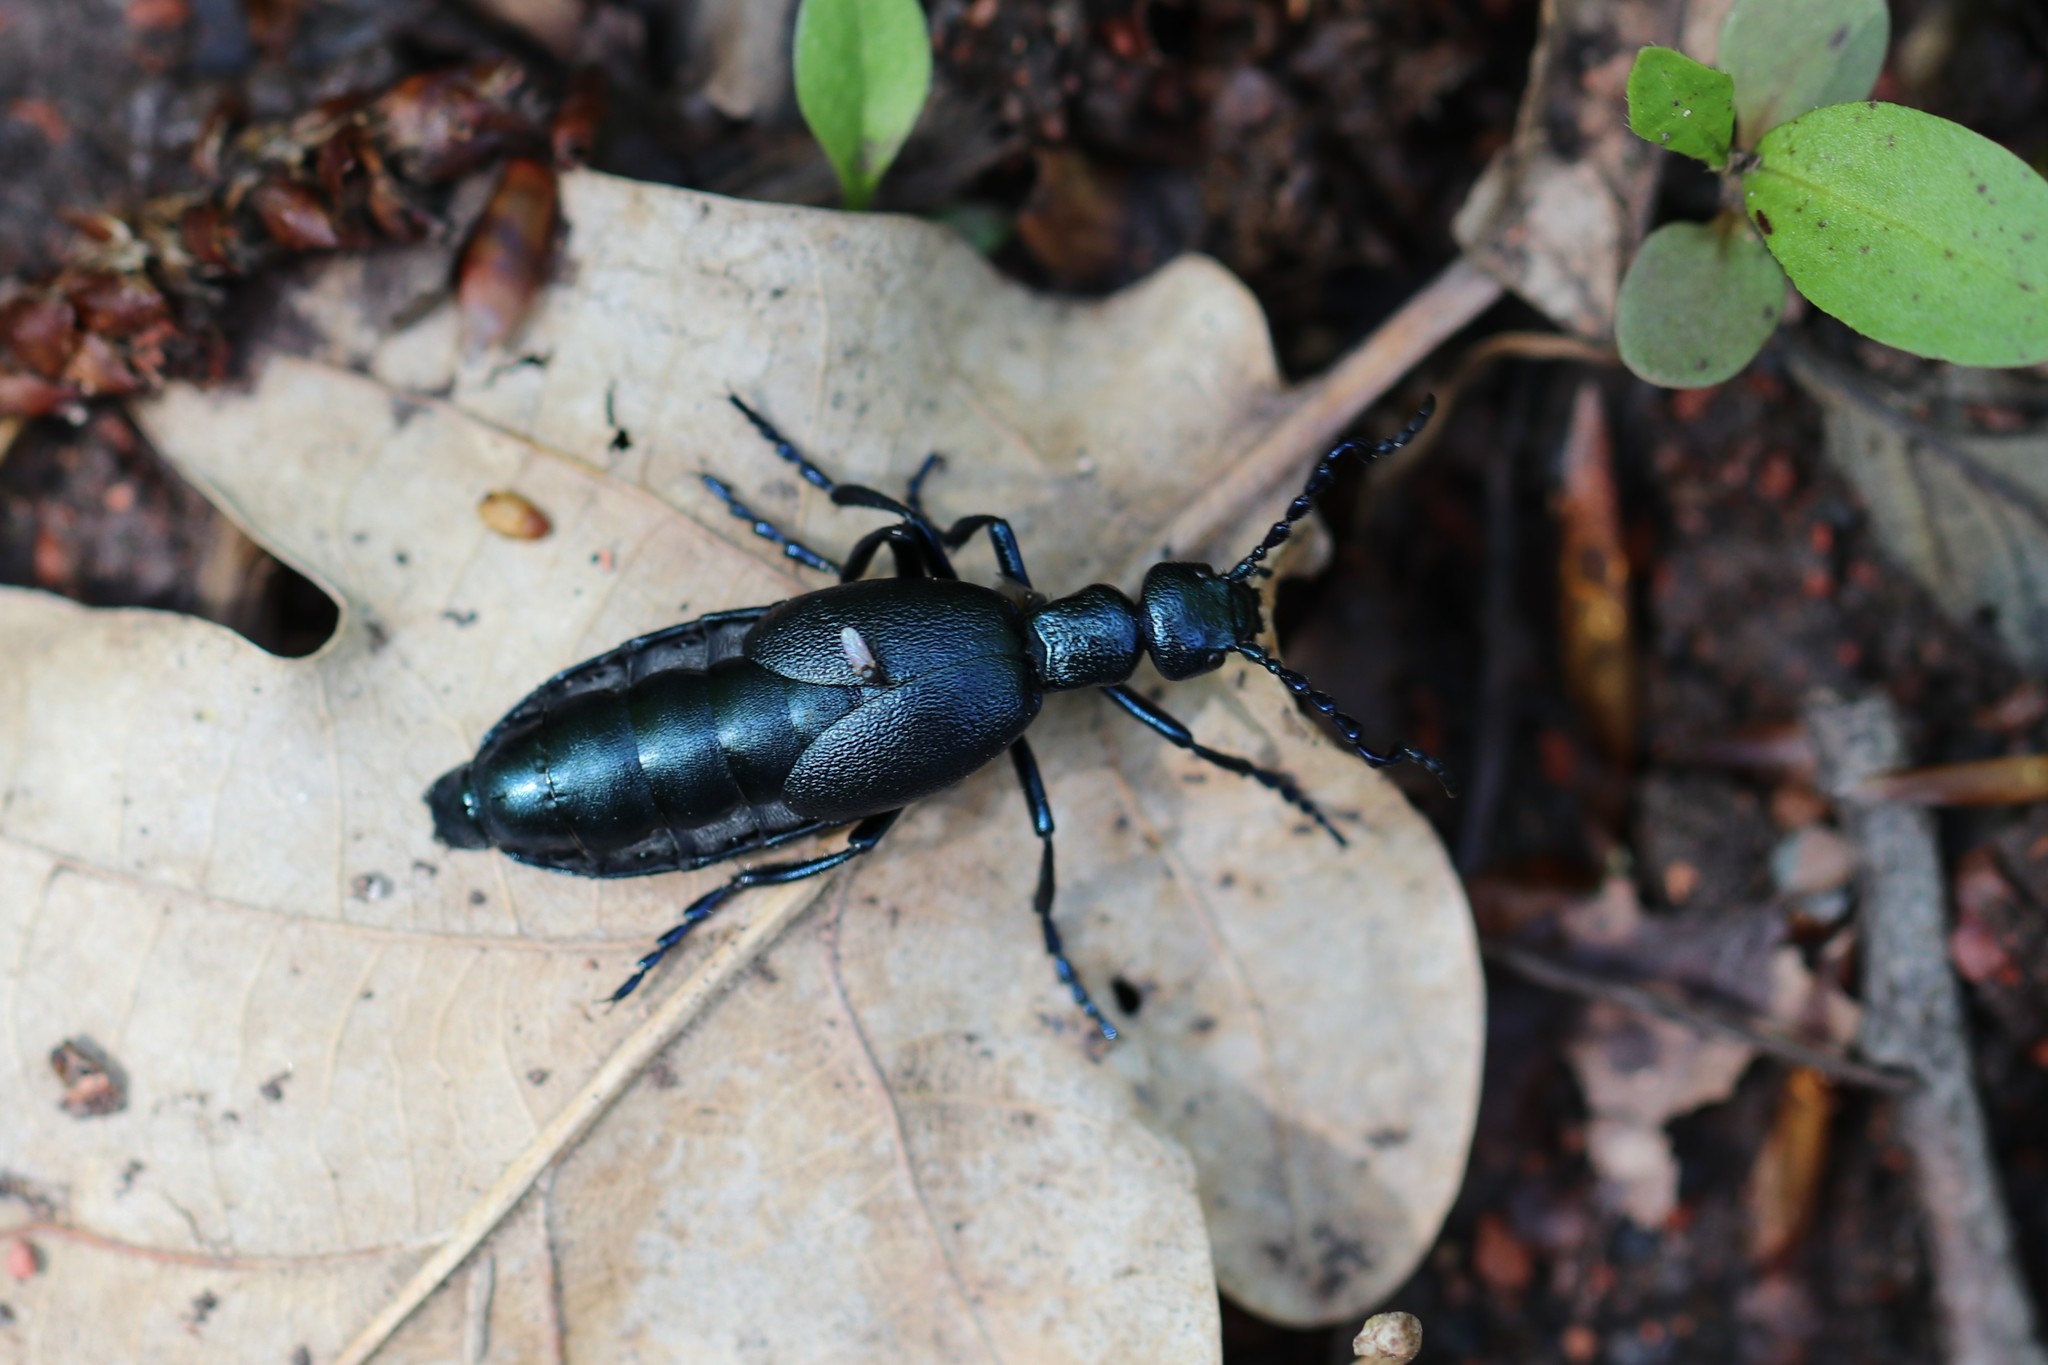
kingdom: Animalia
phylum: Arthropoda
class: Insecta
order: Coleoptera
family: Meloidae
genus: Meloe
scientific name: Meloe violaceus
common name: Violet oil-beetle
